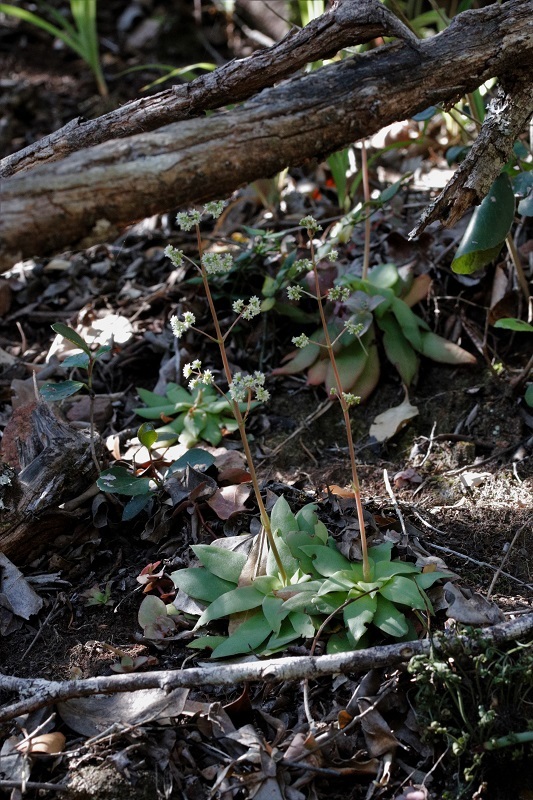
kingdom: Plantae
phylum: Tracheophyta
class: Magnoliopsida
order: Saxifragales
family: Crassulaceae
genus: Crassula
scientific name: Crassula orbicularis
